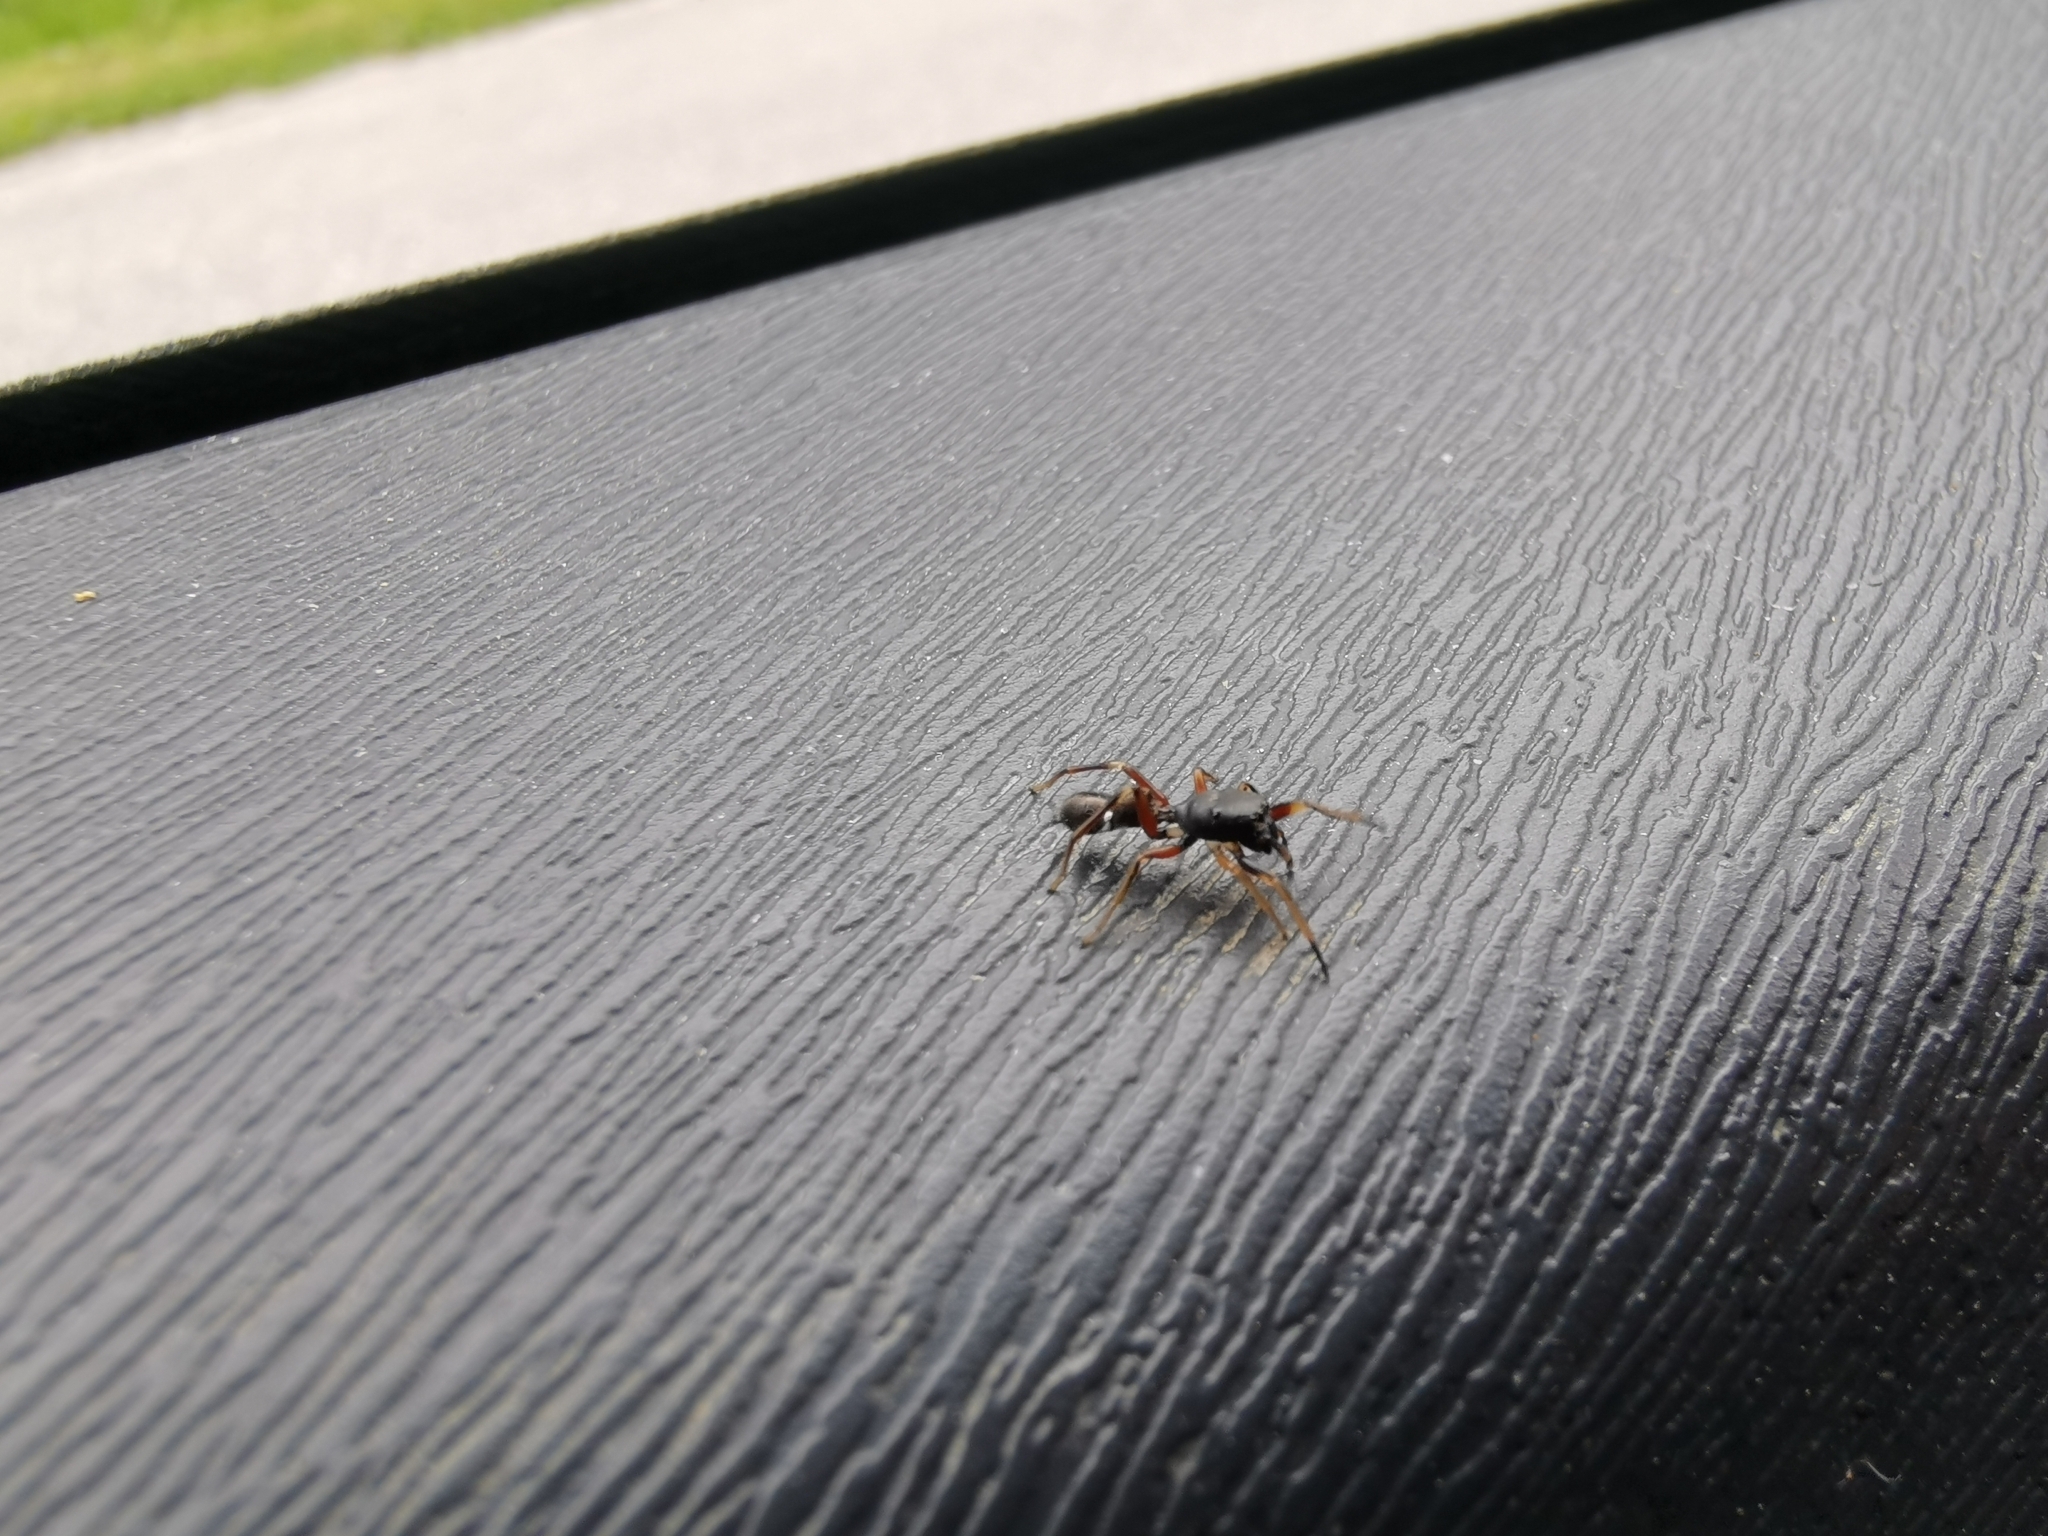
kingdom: Animalia
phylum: Arthropoda
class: Arachnida
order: Araneae
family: Salticidae
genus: Leptorchestes
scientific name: Leptorchestes berolinensis
